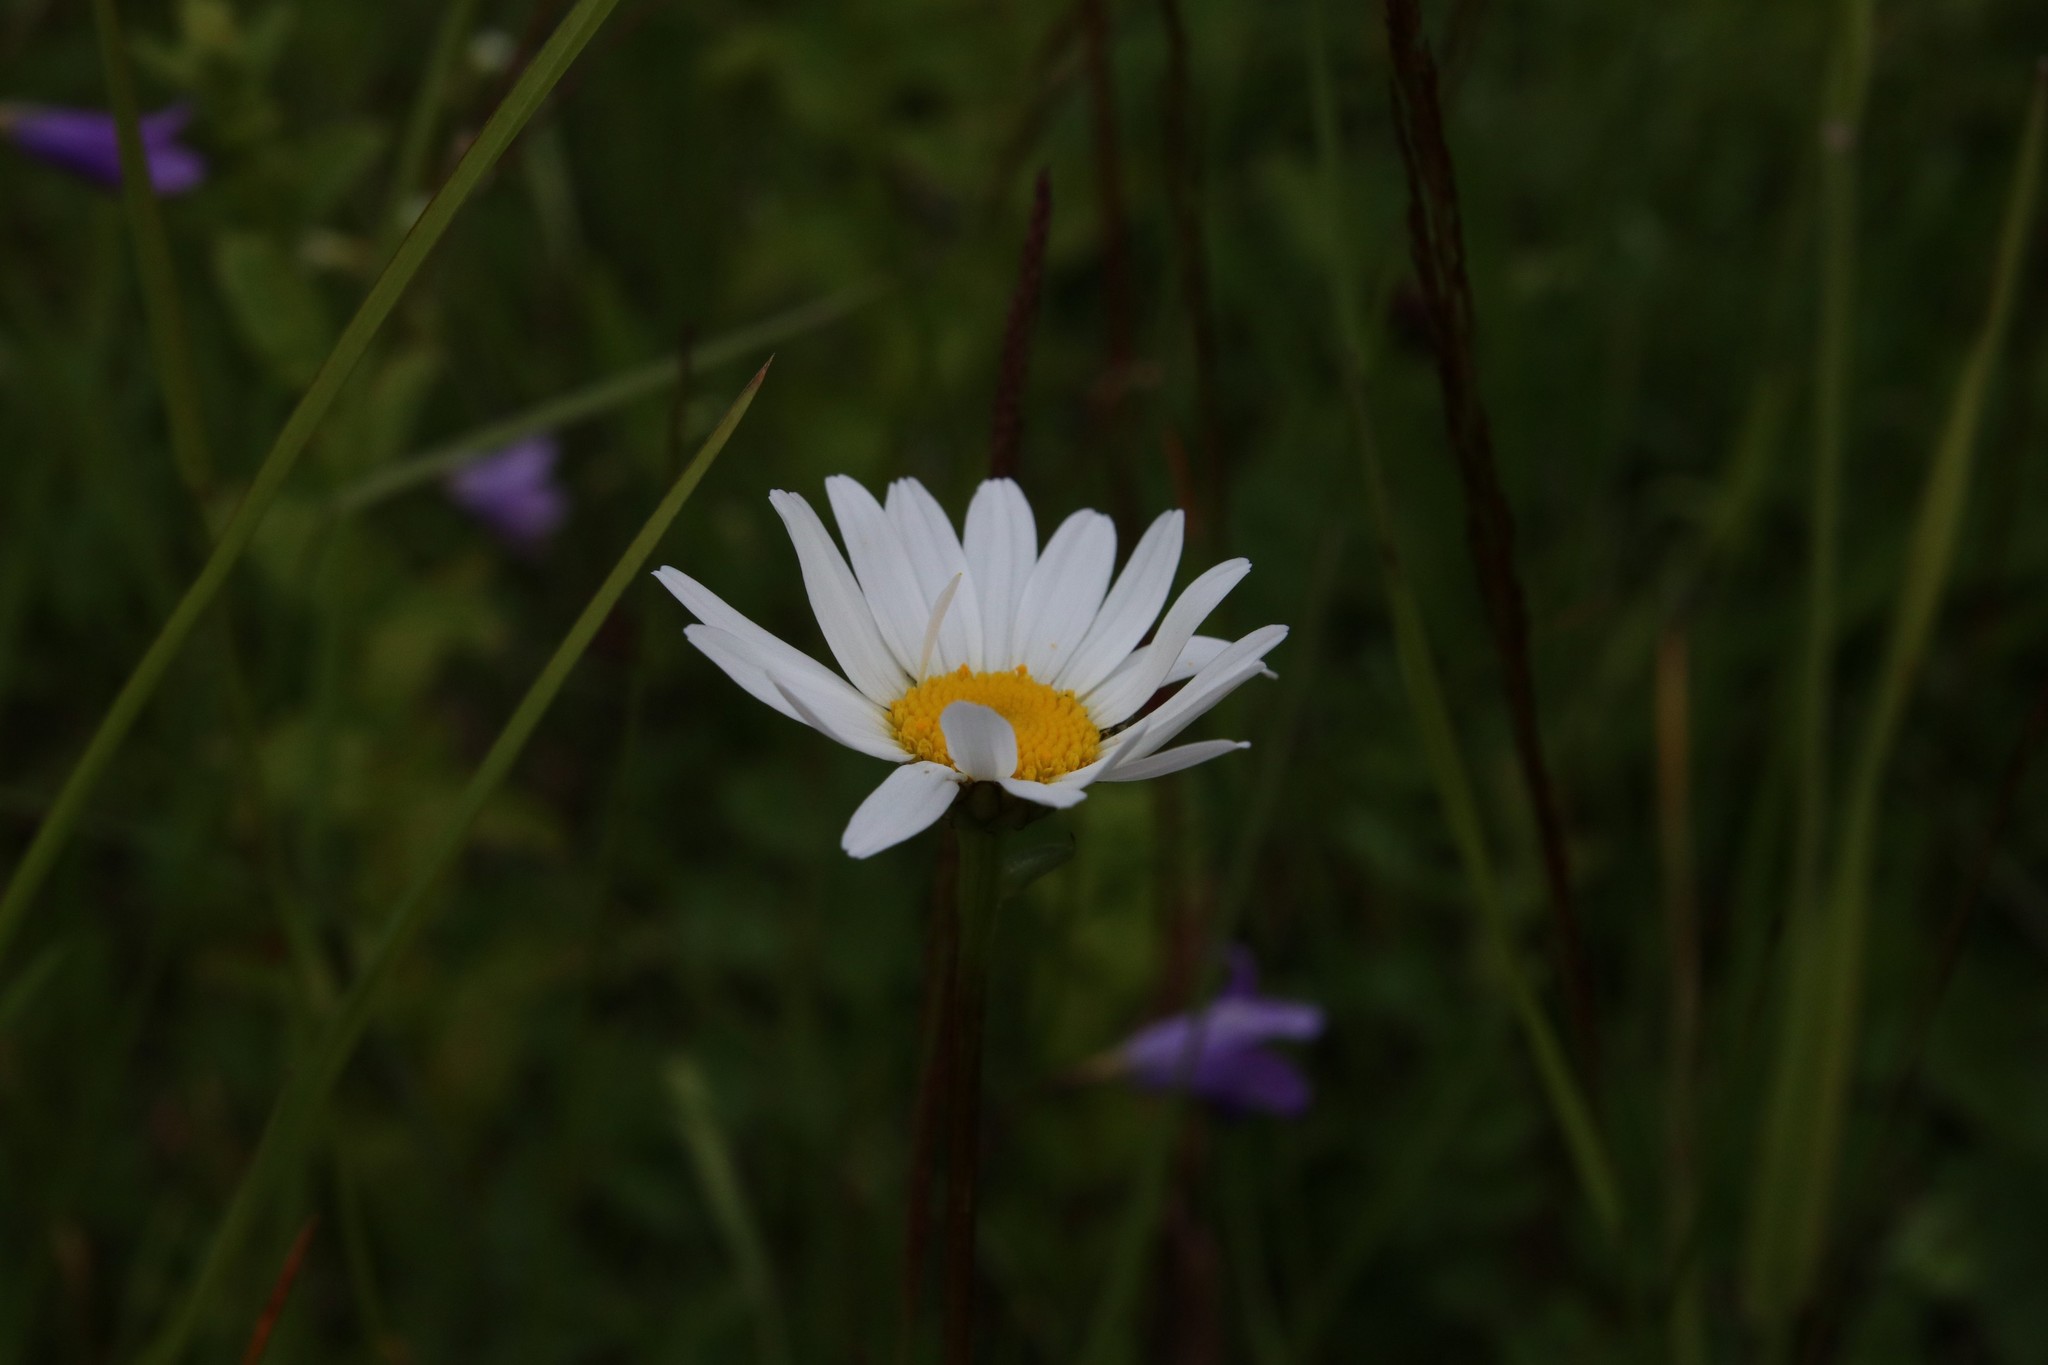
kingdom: Plantae
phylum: Tracheophyta
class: Magnoliopsida
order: Asterales
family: Asteraceae
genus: Leucanthemum
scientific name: Leucanthemum vulgare
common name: Oxeye daisy
